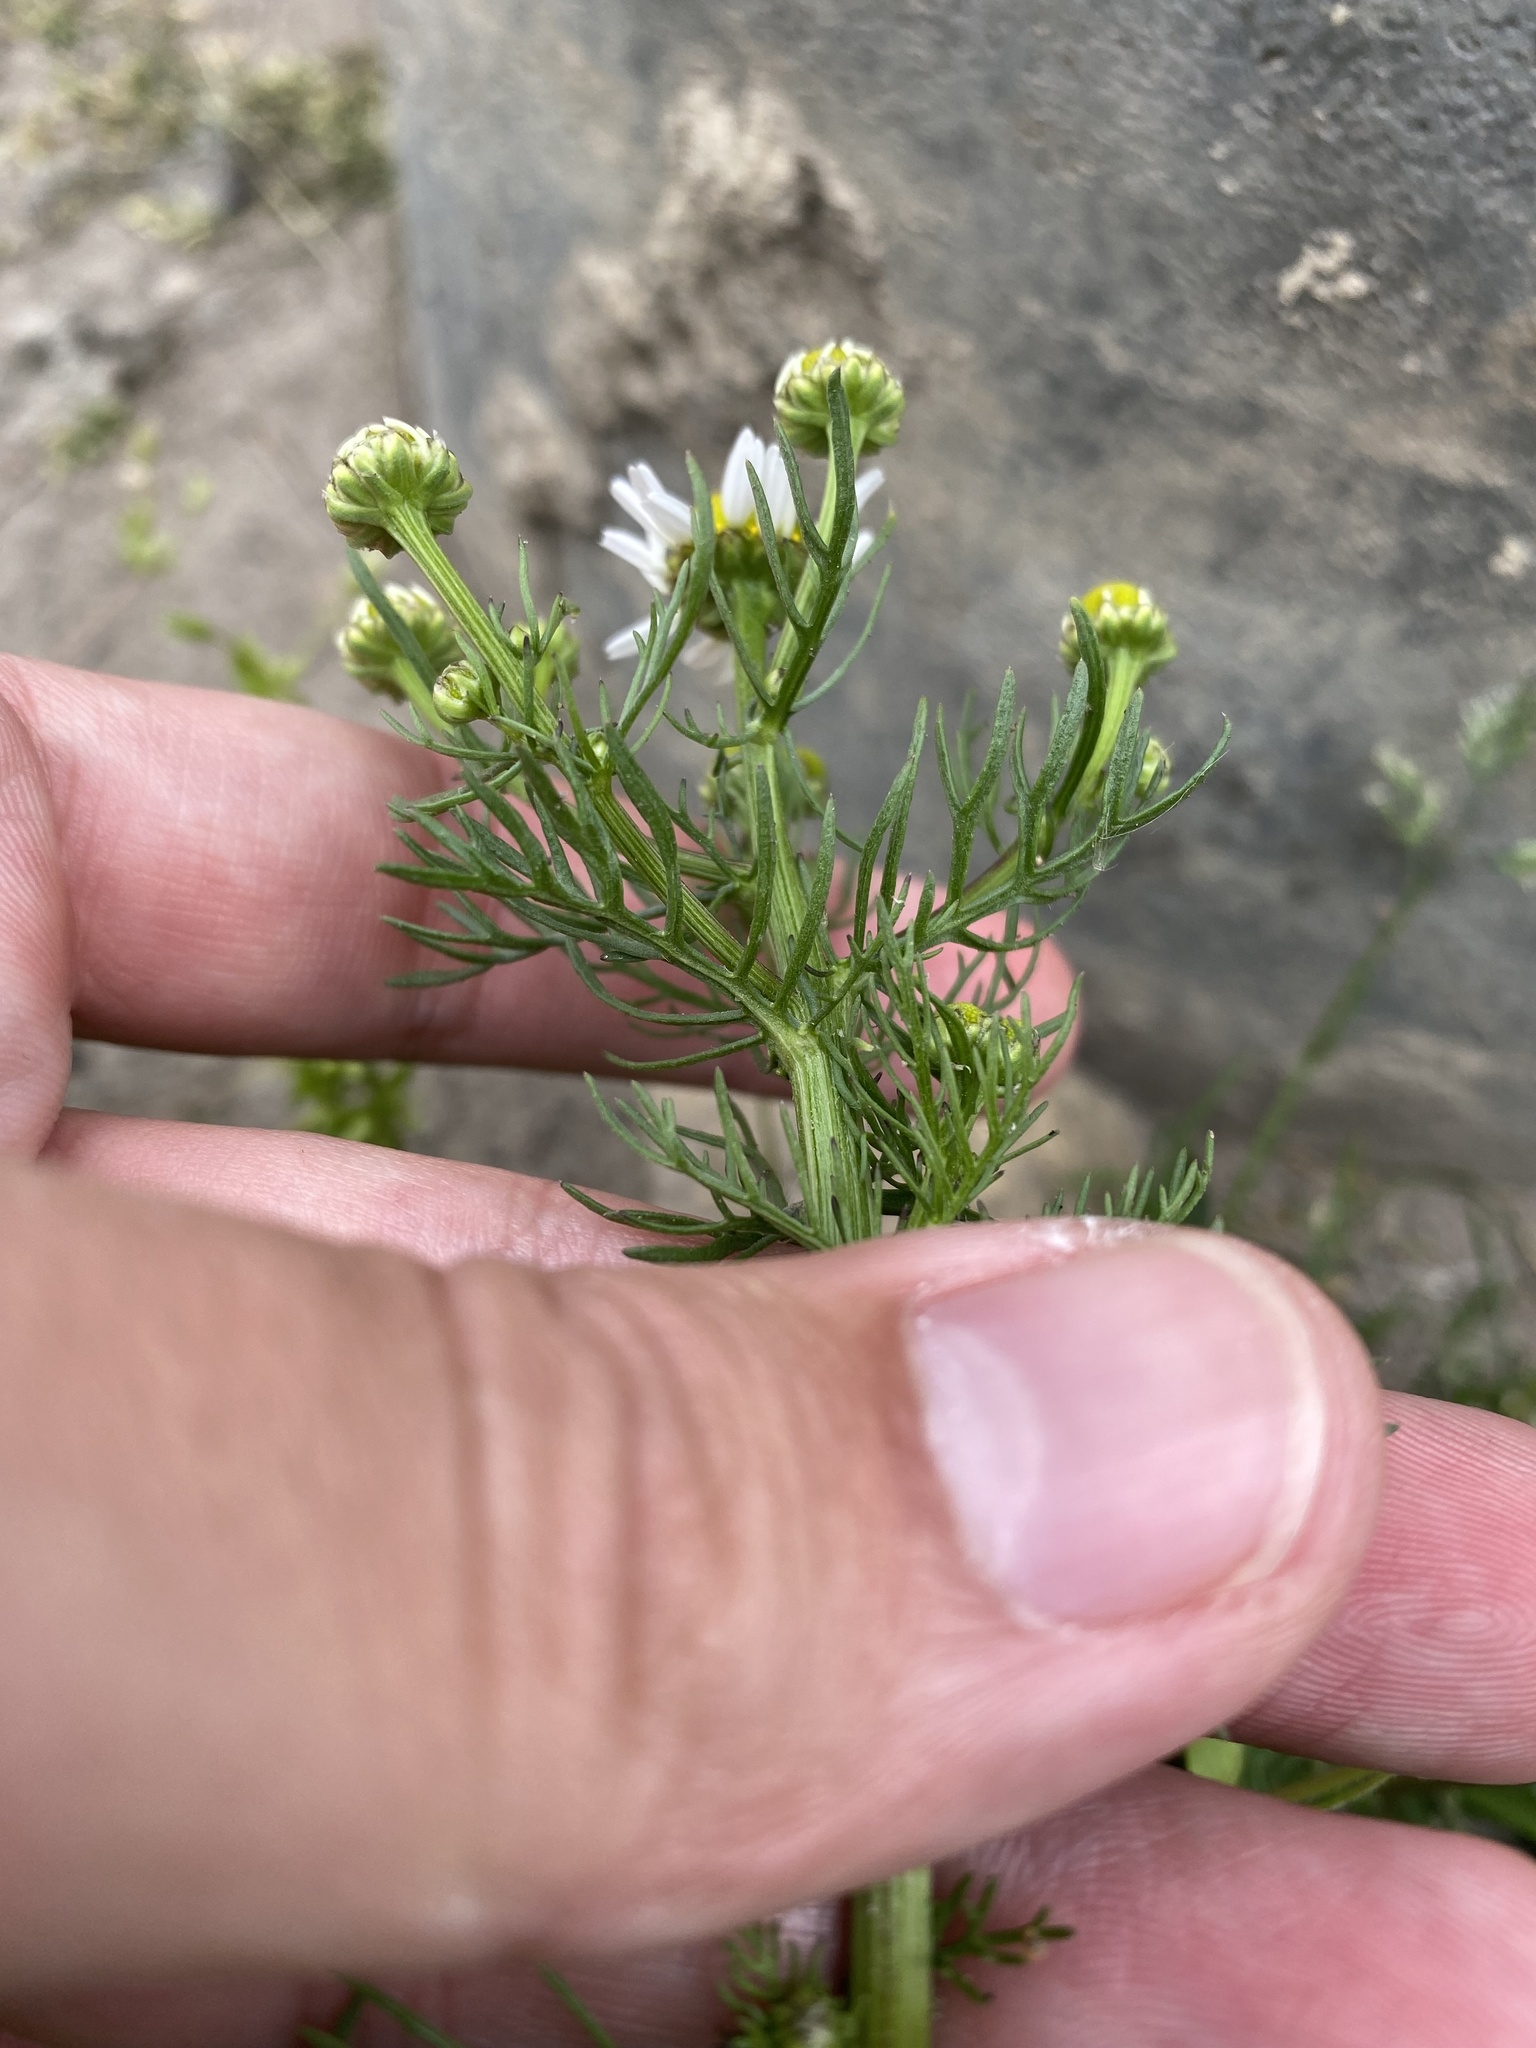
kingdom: Plantae
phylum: Tracheophyta
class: Magnoliopsida
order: Asterales
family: Asteraceae
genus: Tripleurospermum
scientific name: Tripleurospermum inodorum
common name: Scentless mayweed
